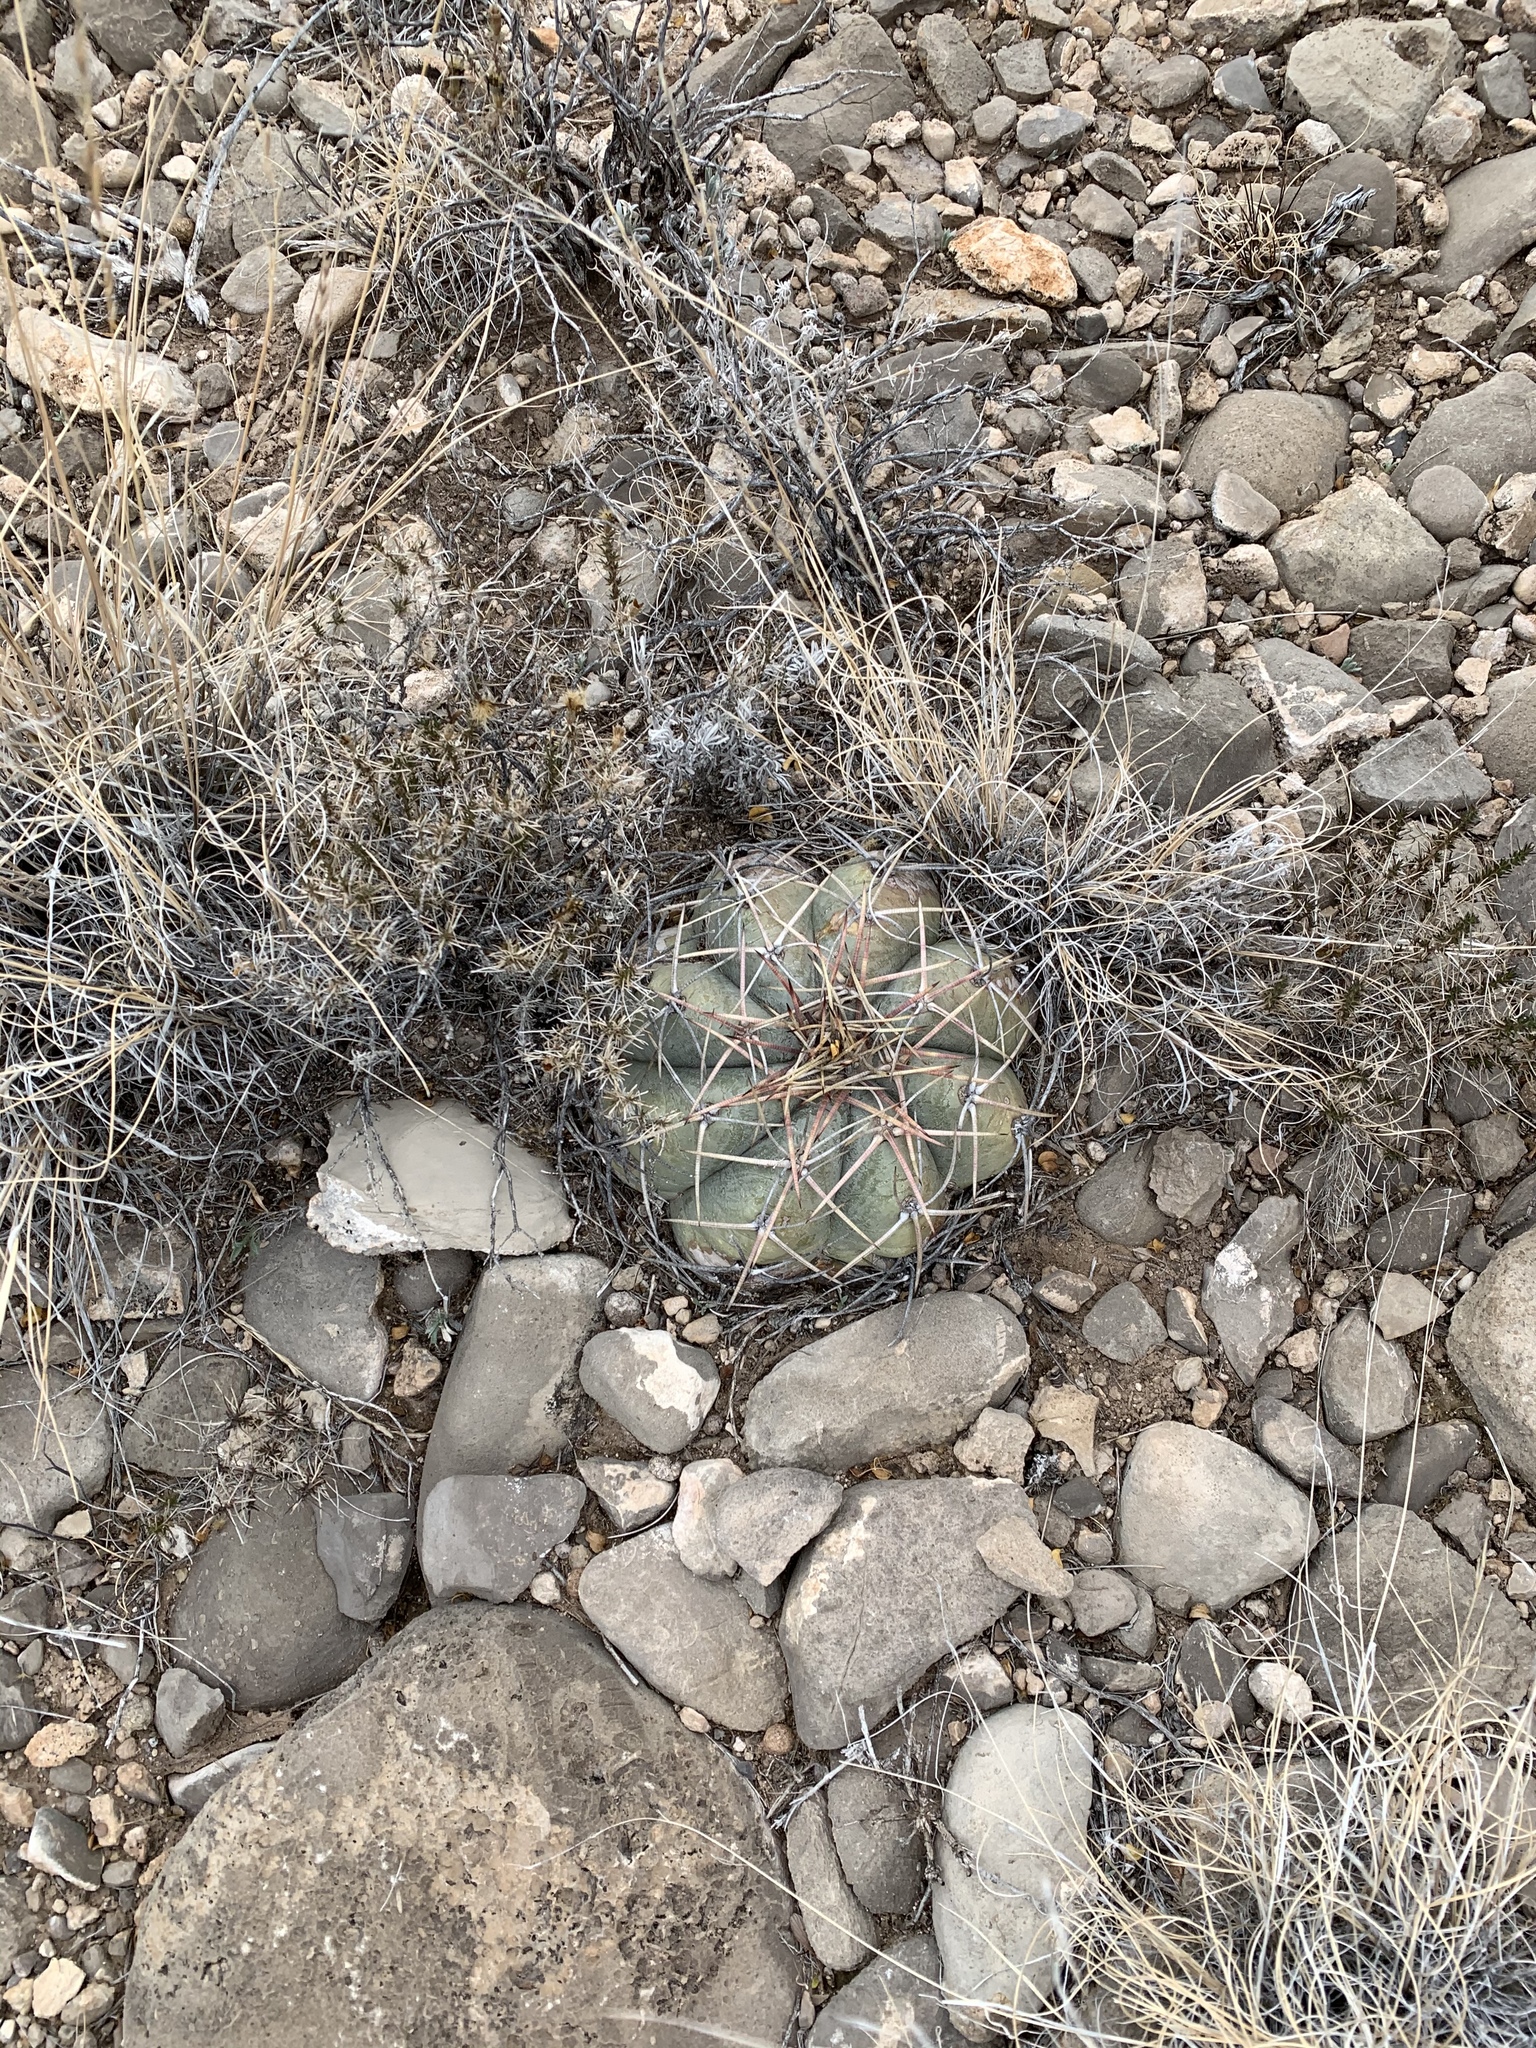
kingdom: Plantae
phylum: Tracheophyta
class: Magnoliopsida
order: Caryophyllales
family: Cactaceae
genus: Echinocactus
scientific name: Echinocactus horizonthalonius
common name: Devilshead
